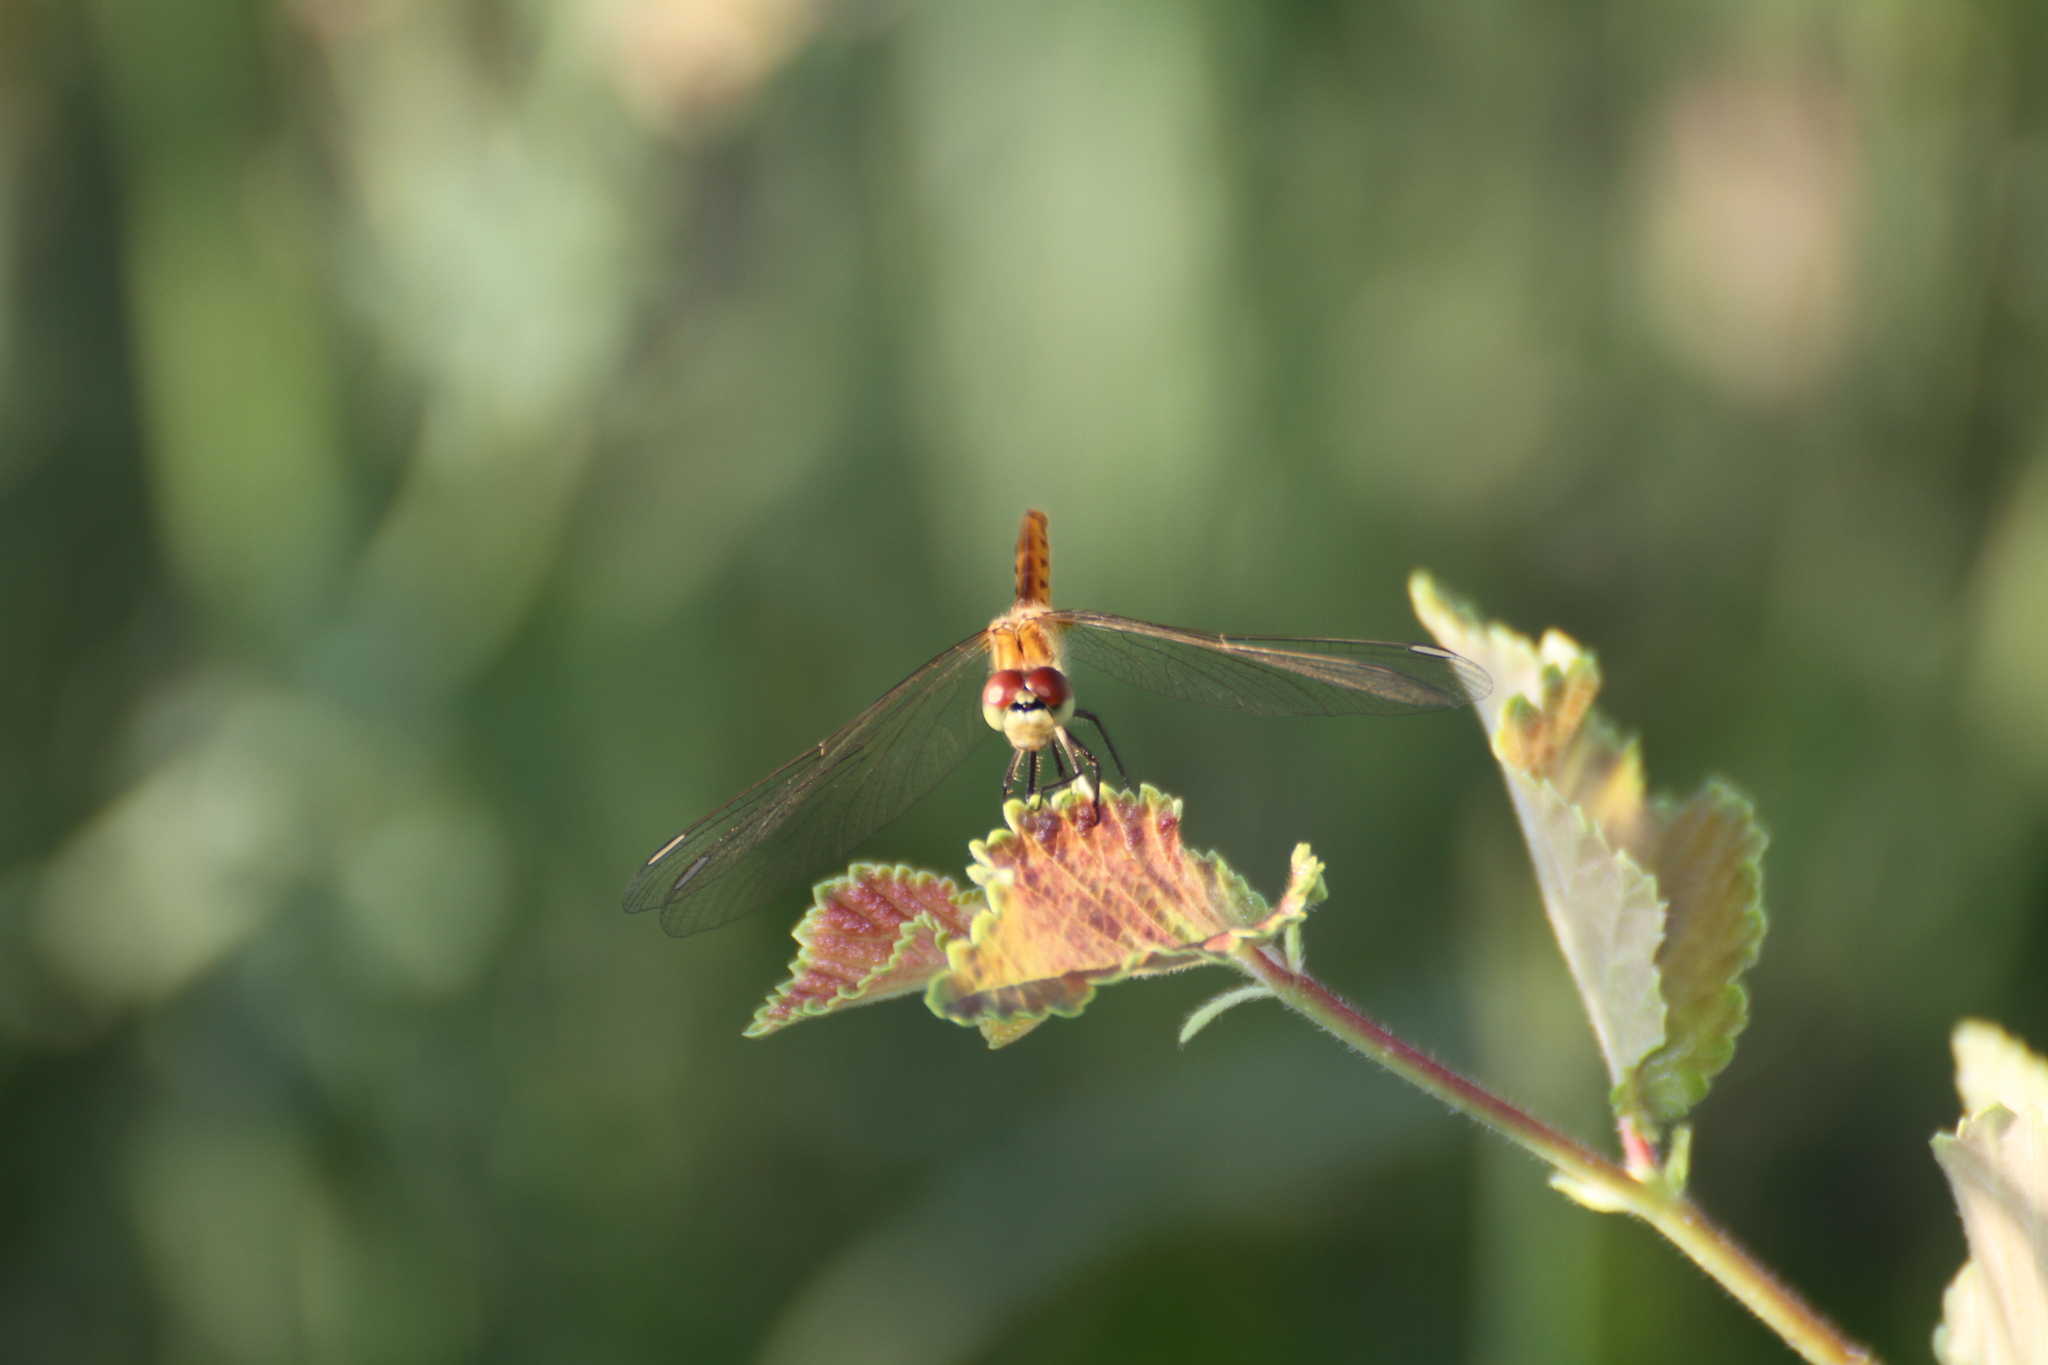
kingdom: Animalia
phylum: Arthropoda
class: Insecta
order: Odonata
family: Libellulidae
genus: Sympetrum
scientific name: Sympetrum depressiusculum
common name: Spotted darter
